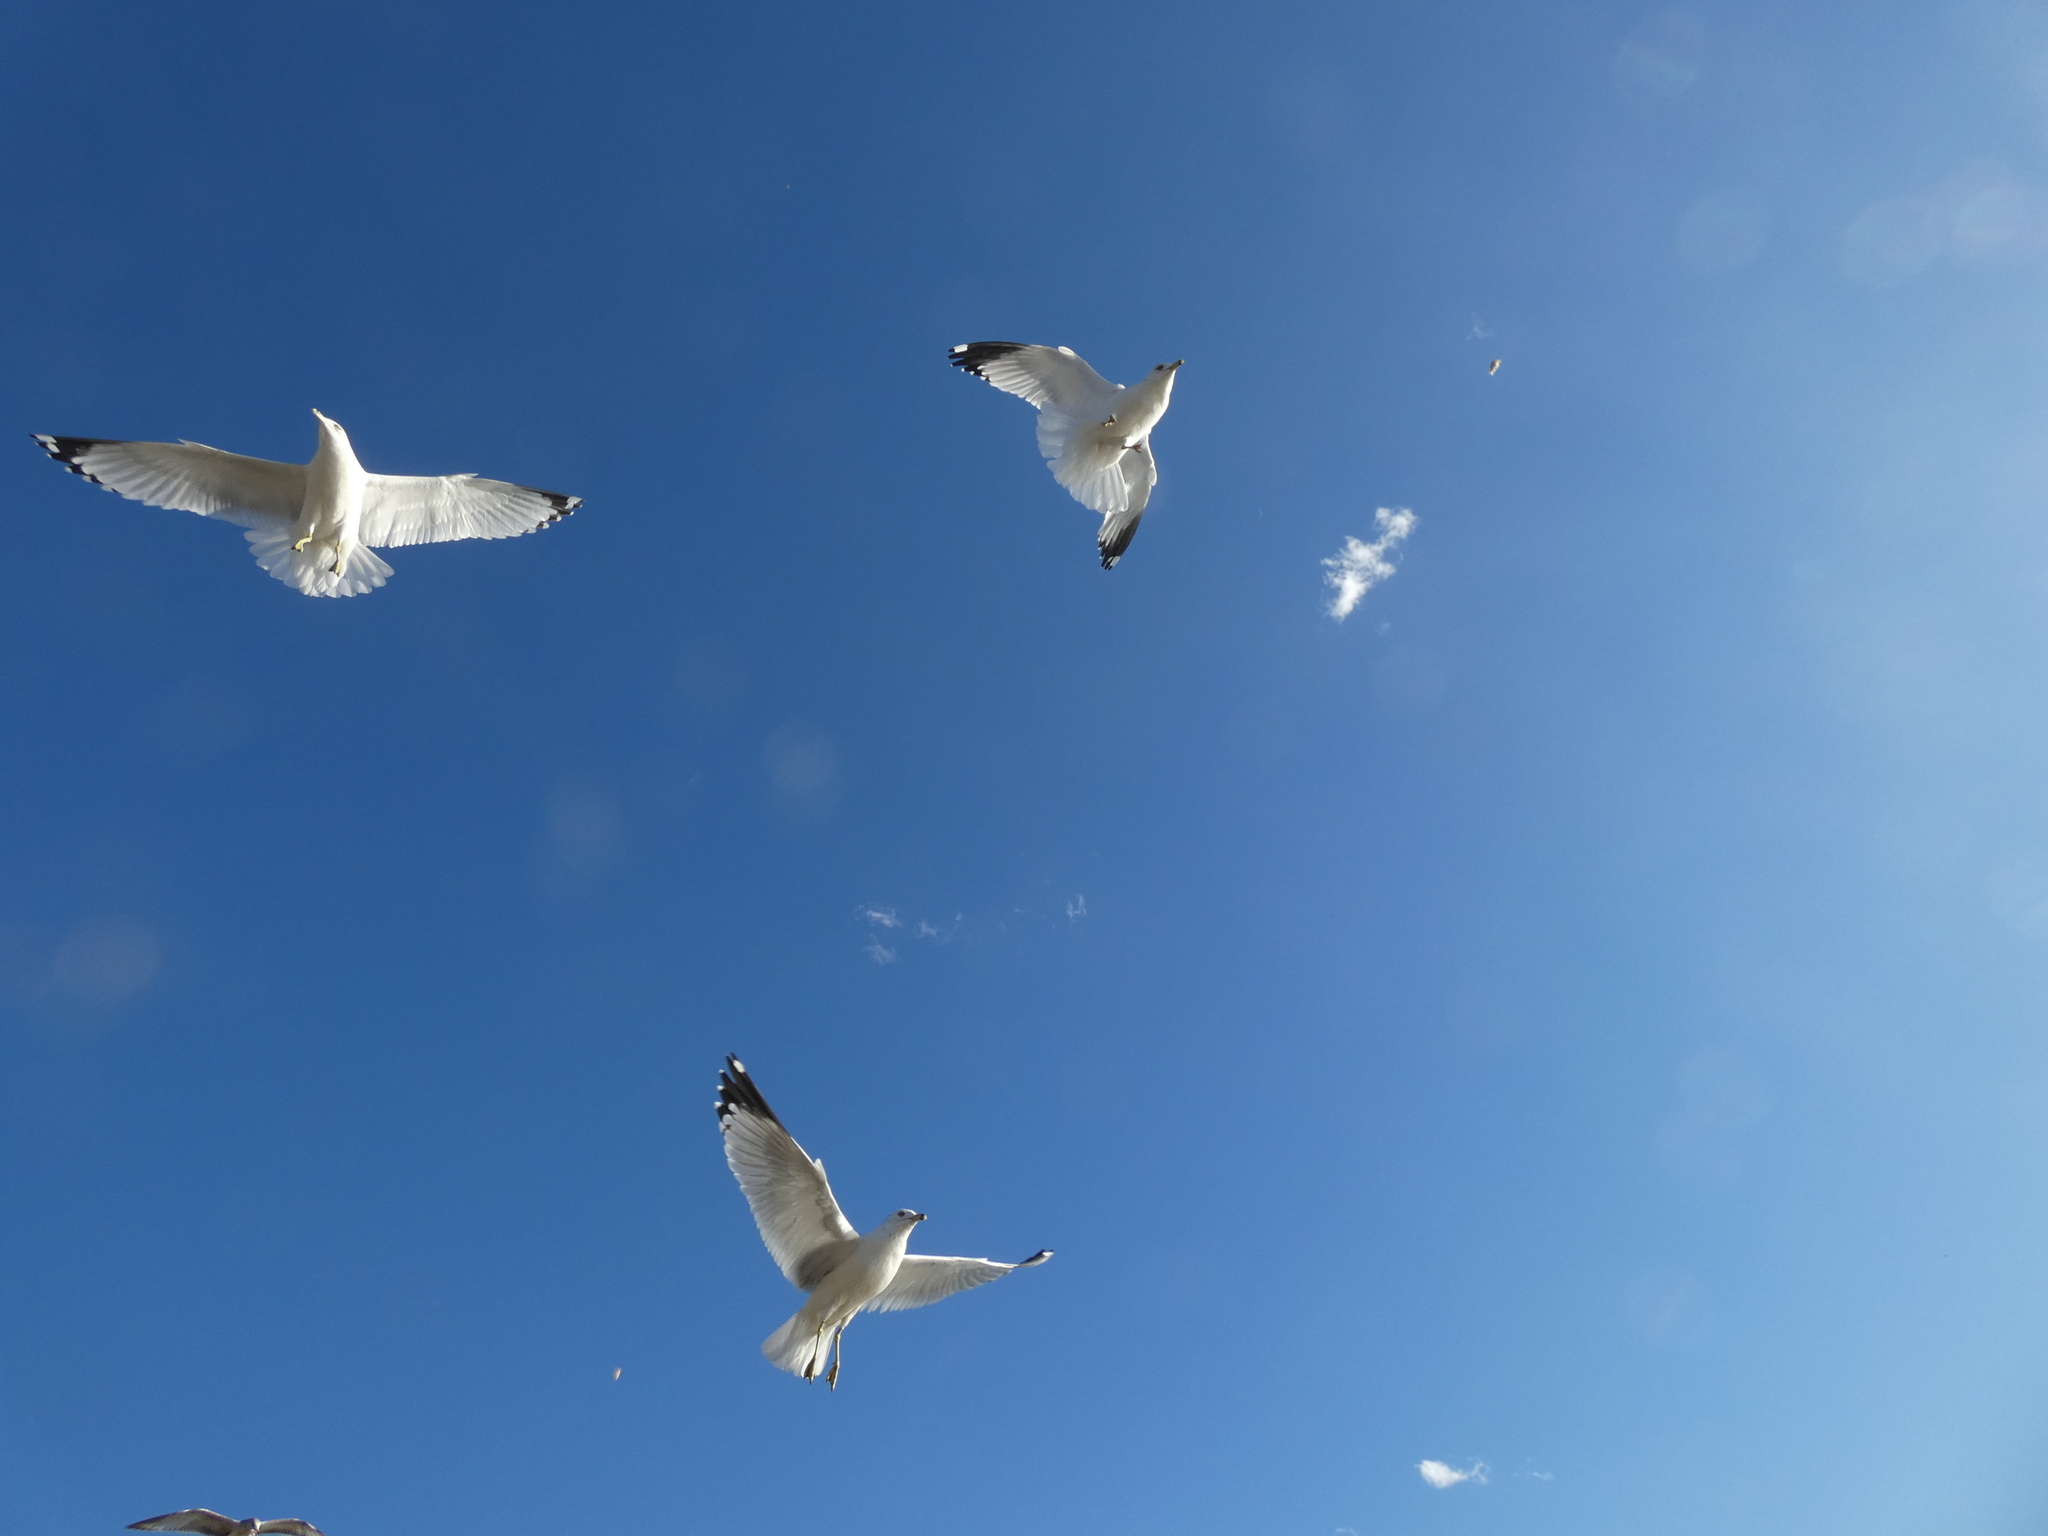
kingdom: Animalia
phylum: Chordata
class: Aves
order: Charadriiformes
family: Laridae
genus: Larus
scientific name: Larus delawarensis
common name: Ring-billed gull
